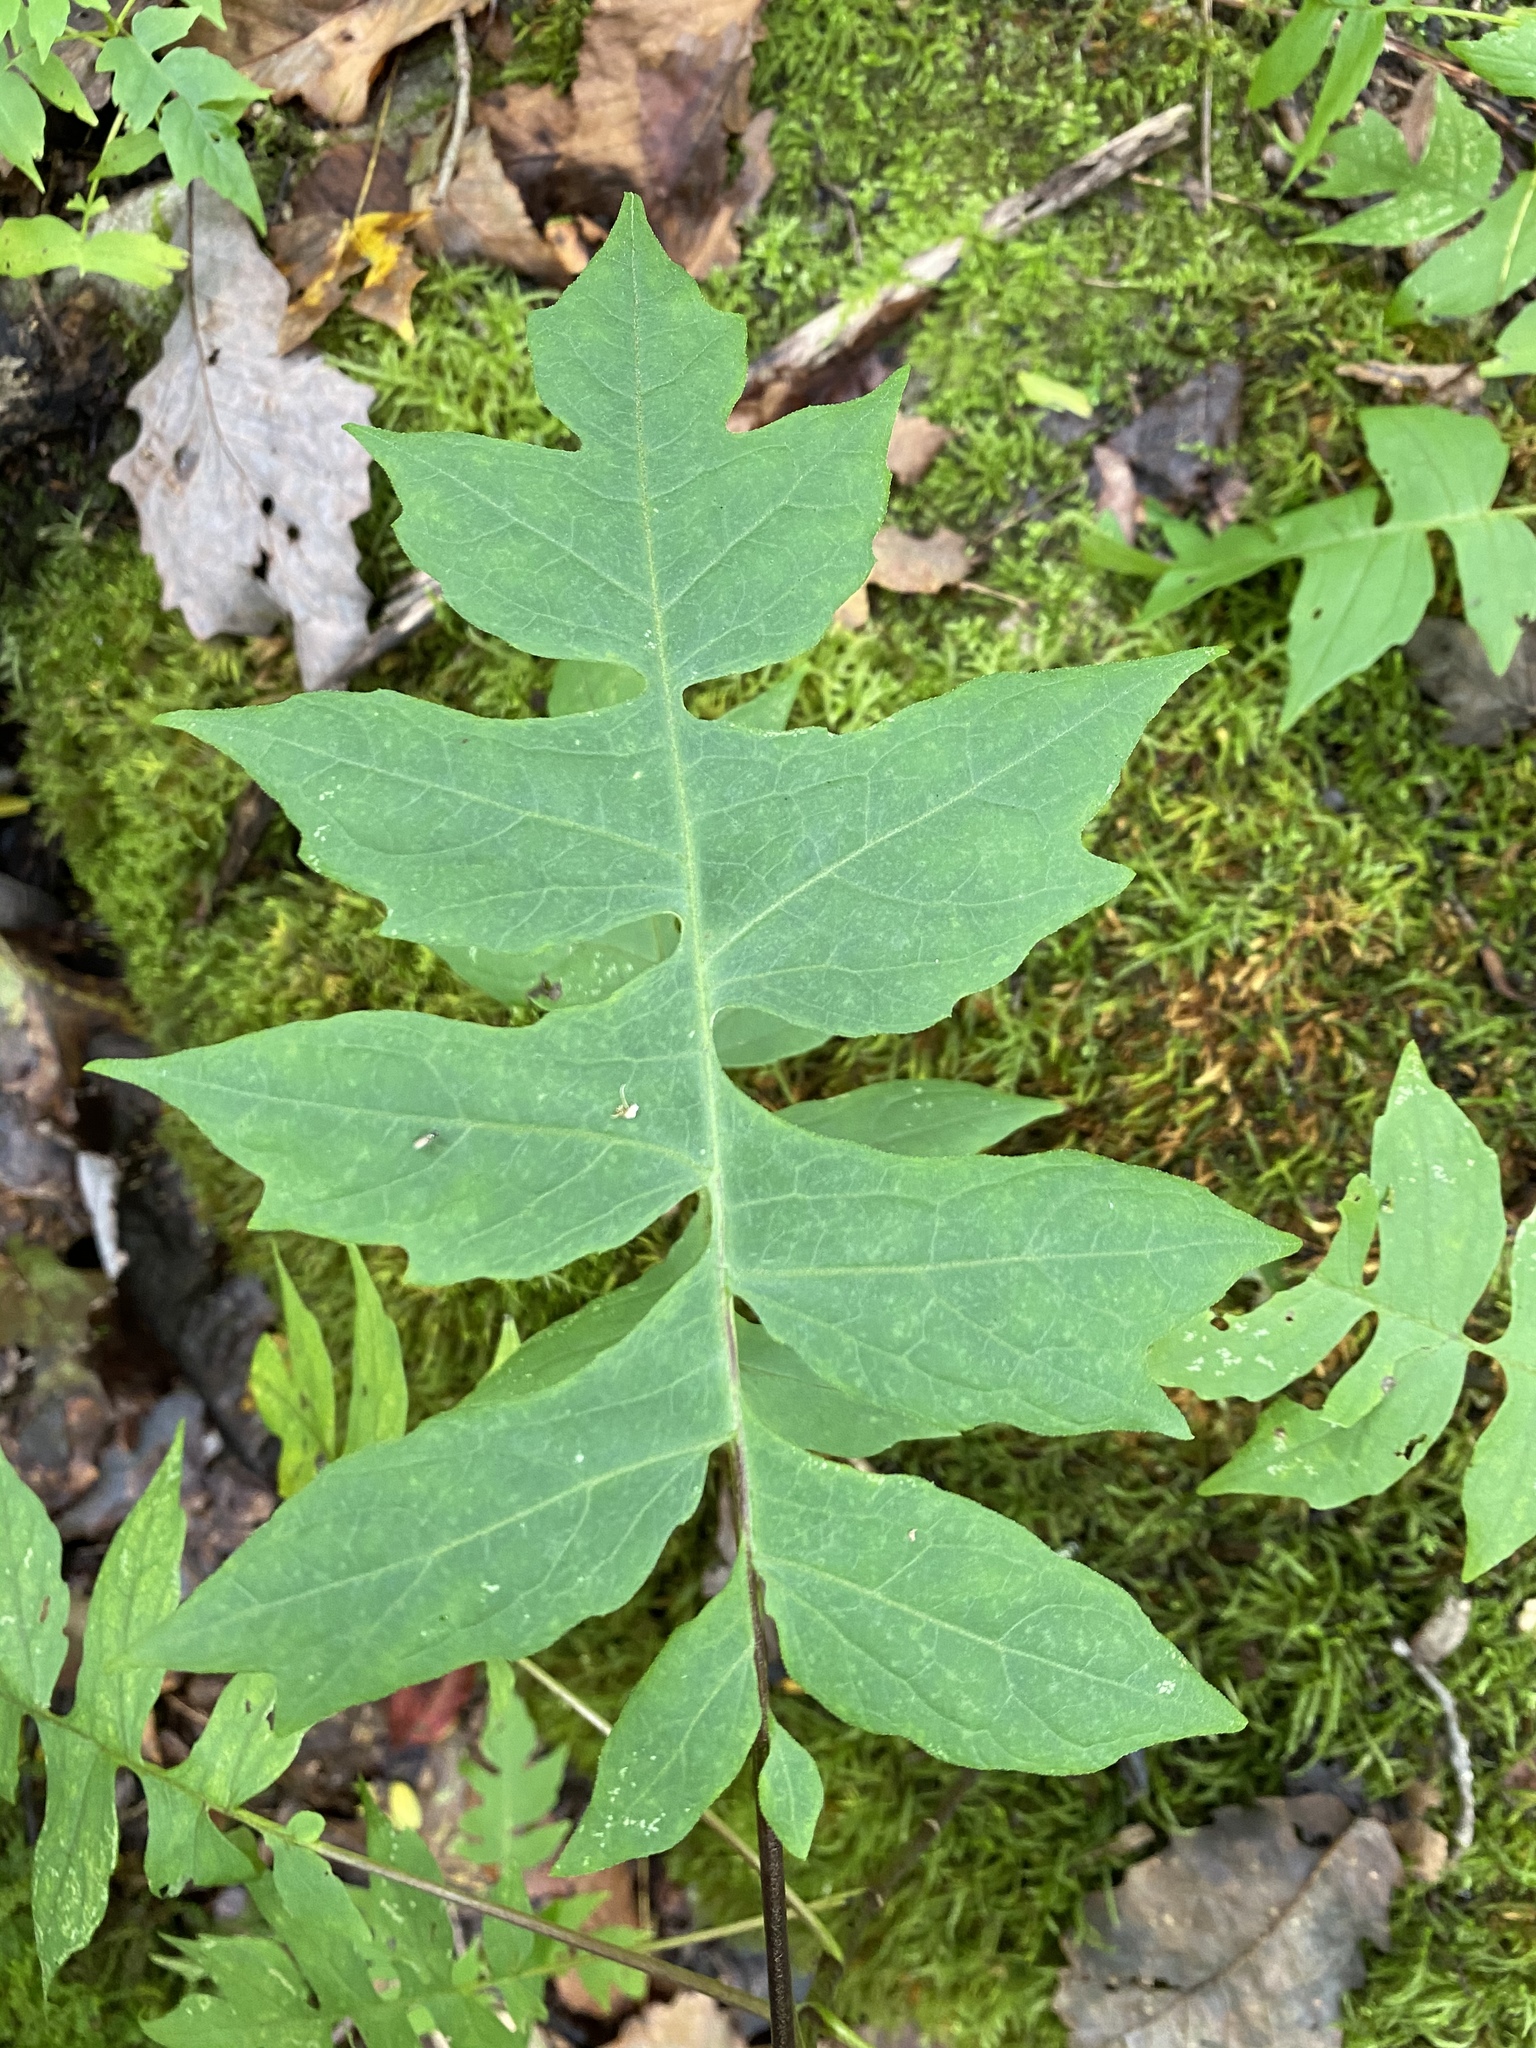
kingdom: Plantae
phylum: Tracheophyta
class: Magnoliopsida
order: Asterales
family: Asteraceae
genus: Polymnia
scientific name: Polymnia canadensis
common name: Pale-flowered leafcup
